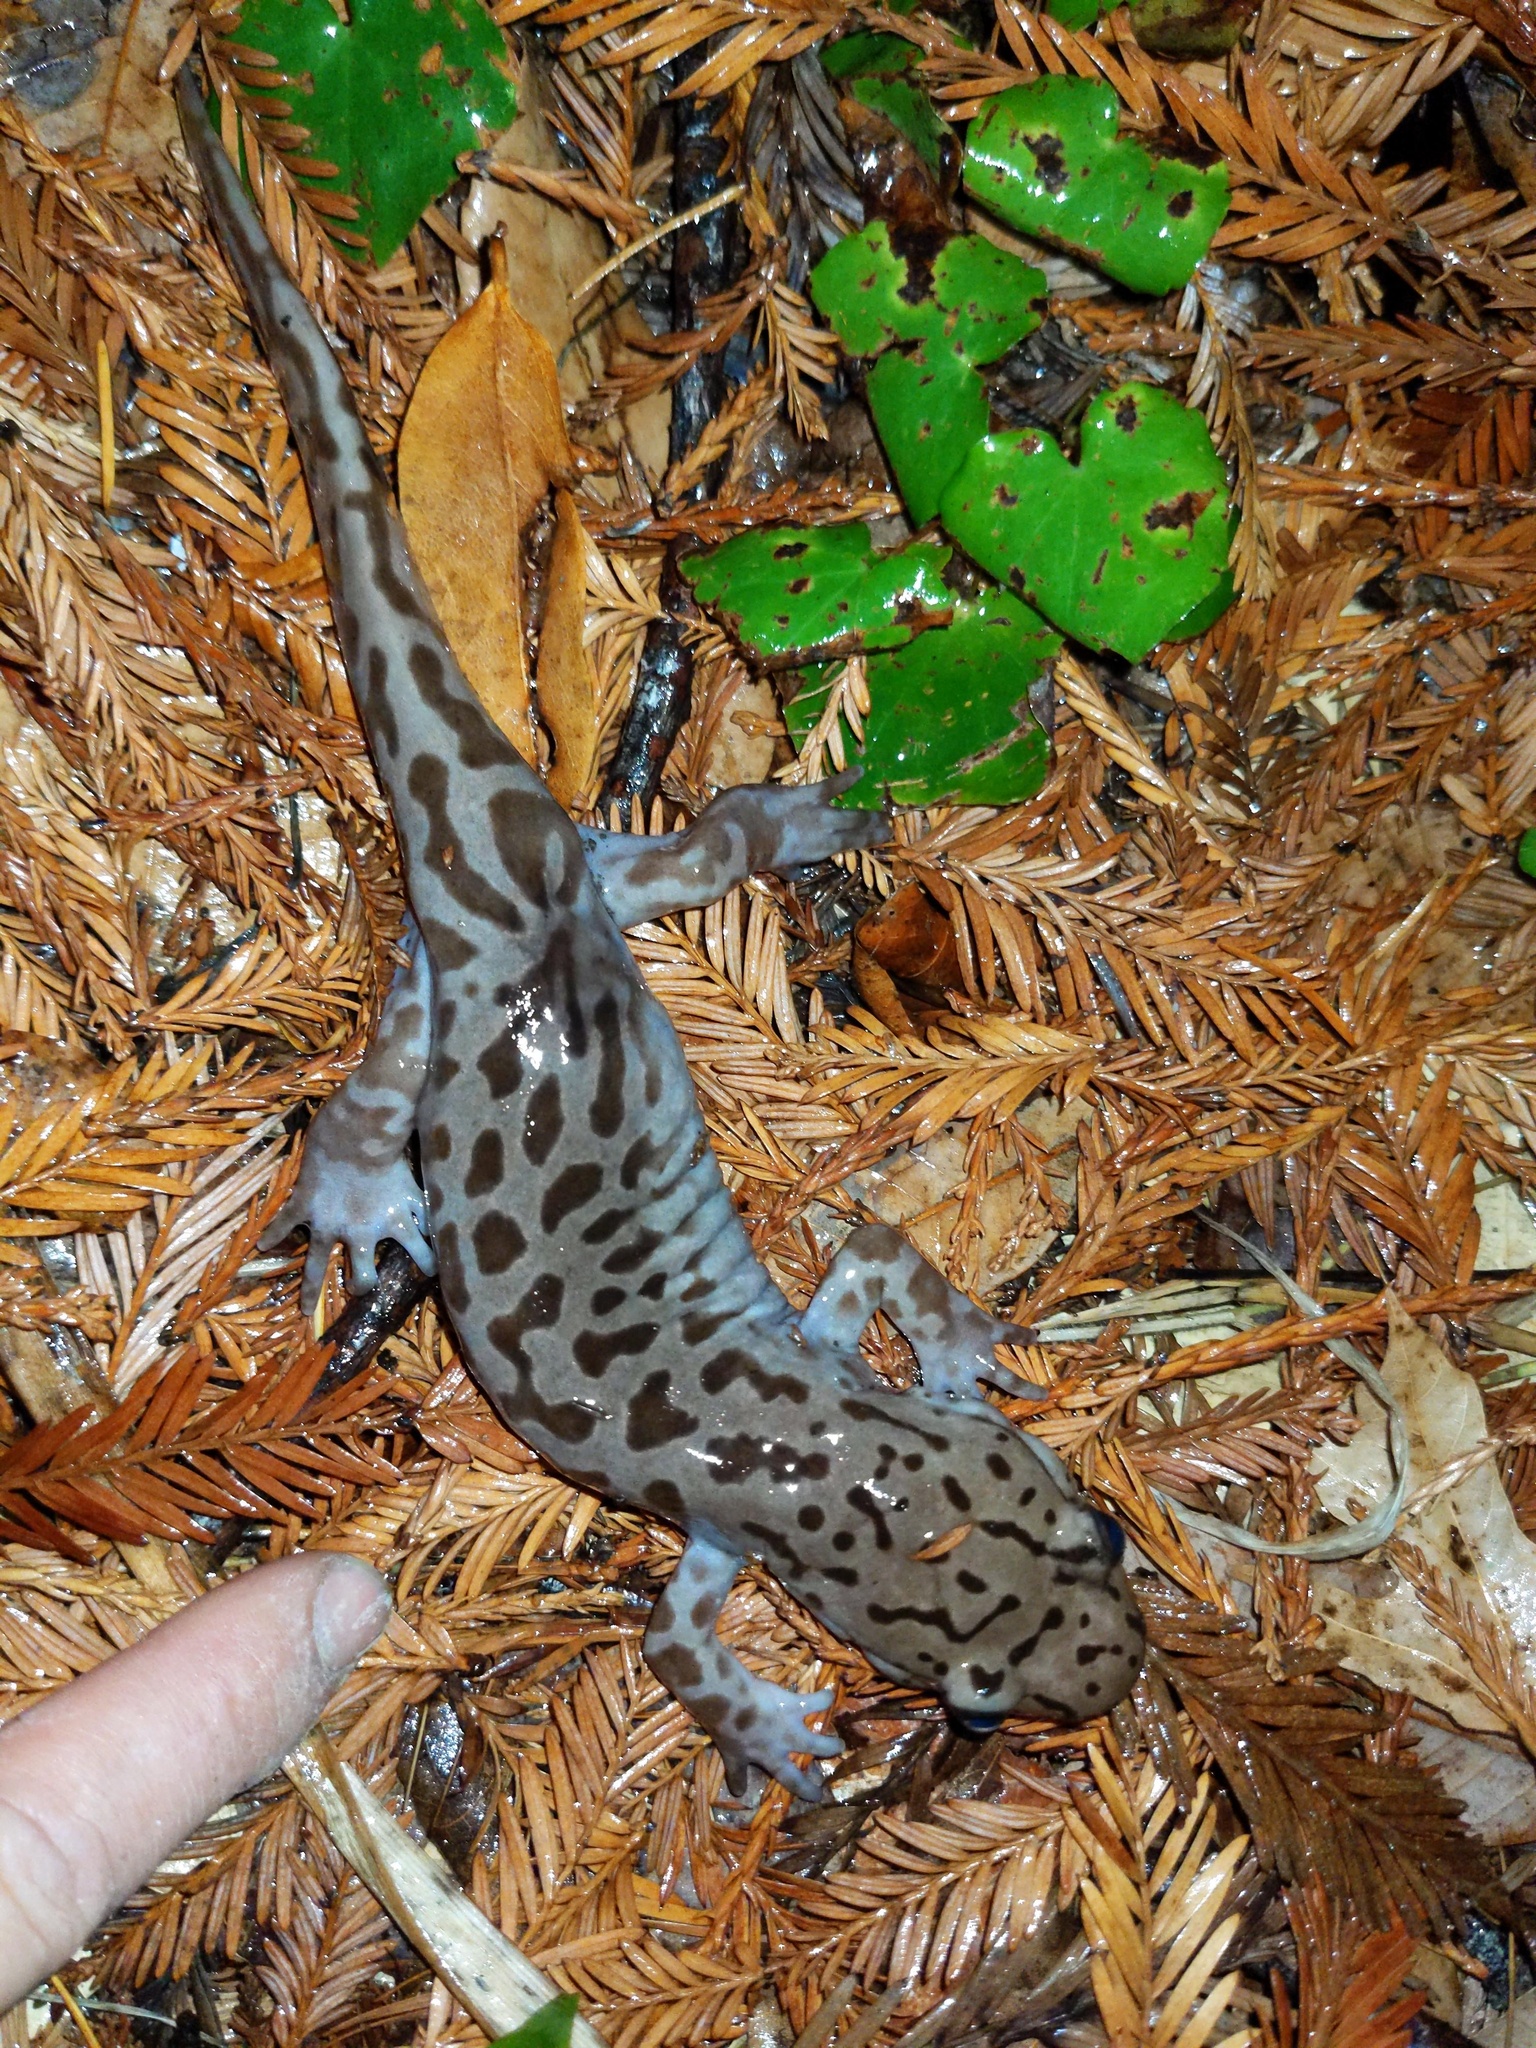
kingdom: Animalia
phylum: Chordata
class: Amphibia
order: Caudata
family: Ambystomatidae
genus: Dicamptodon
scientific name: Dicamptodon tenebrosus
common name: Coastal giant salamander
